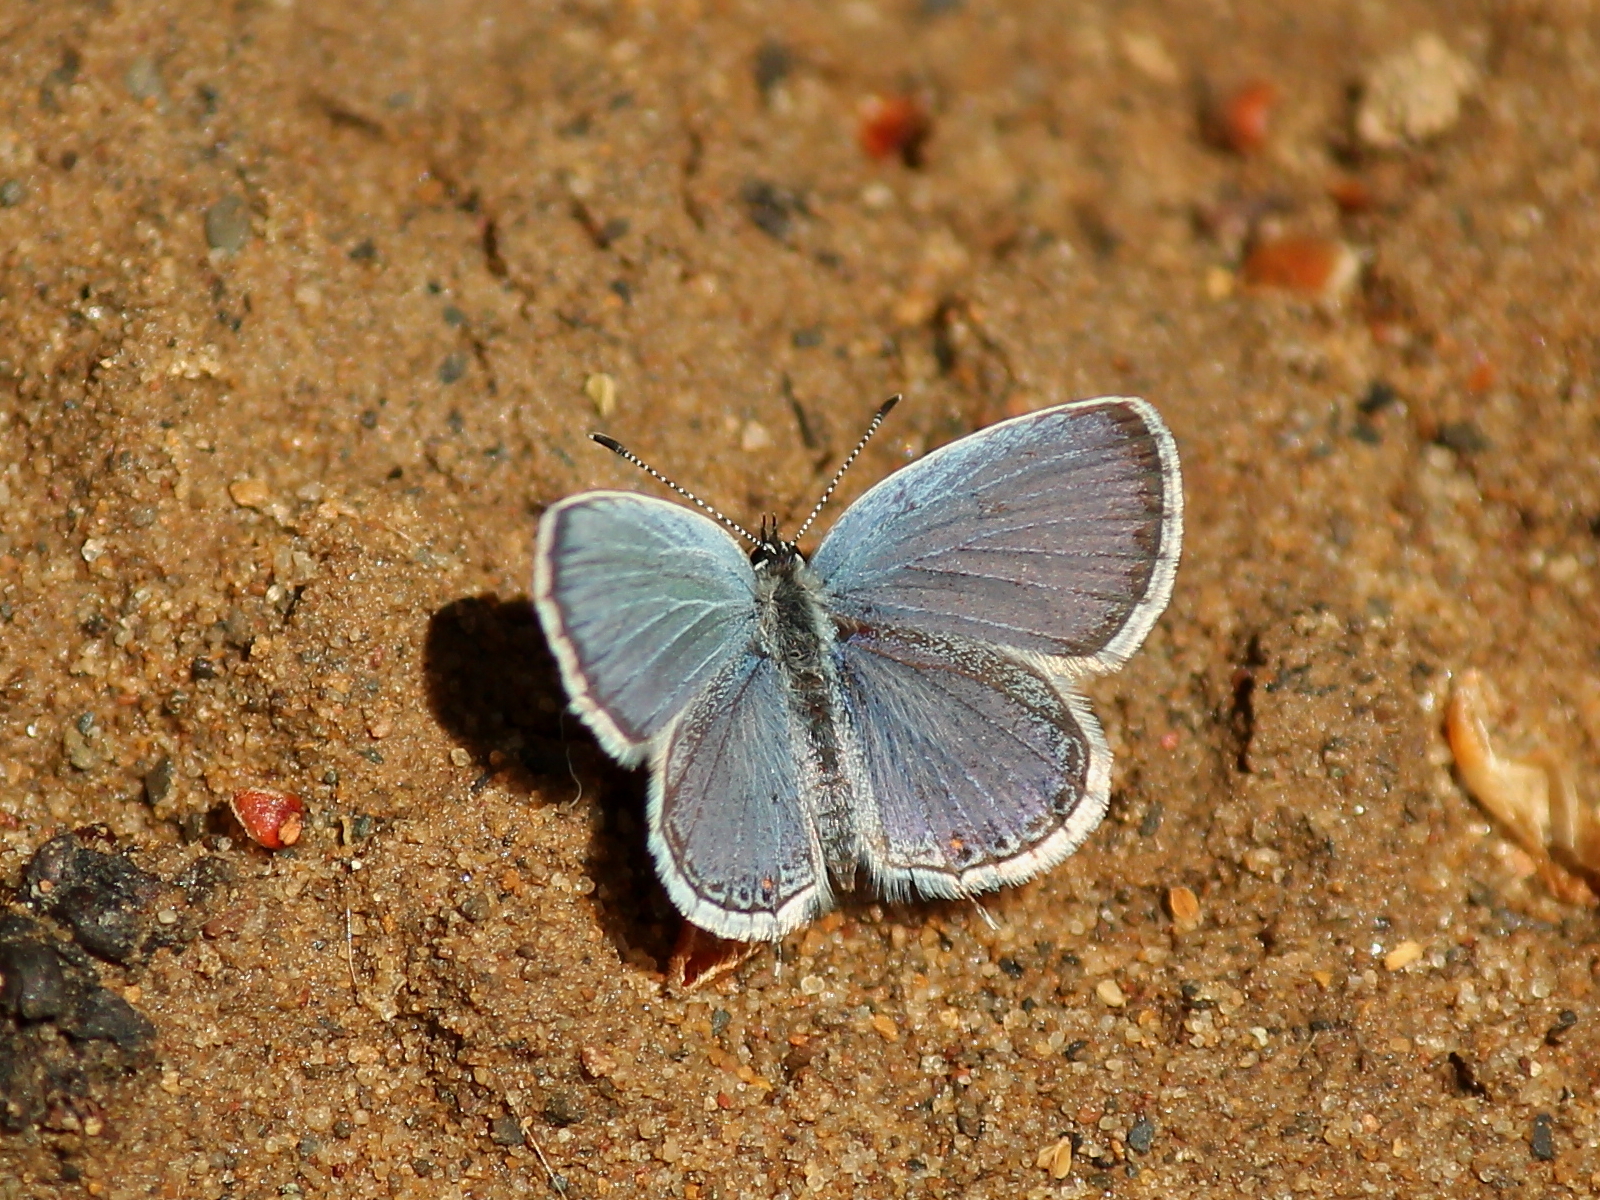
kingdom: Animalia
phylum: Arthropoda
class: Insecta
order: Lepidoptera
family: Lycaenidae
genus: Elkalyce
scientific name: Elkalyce comyntas
